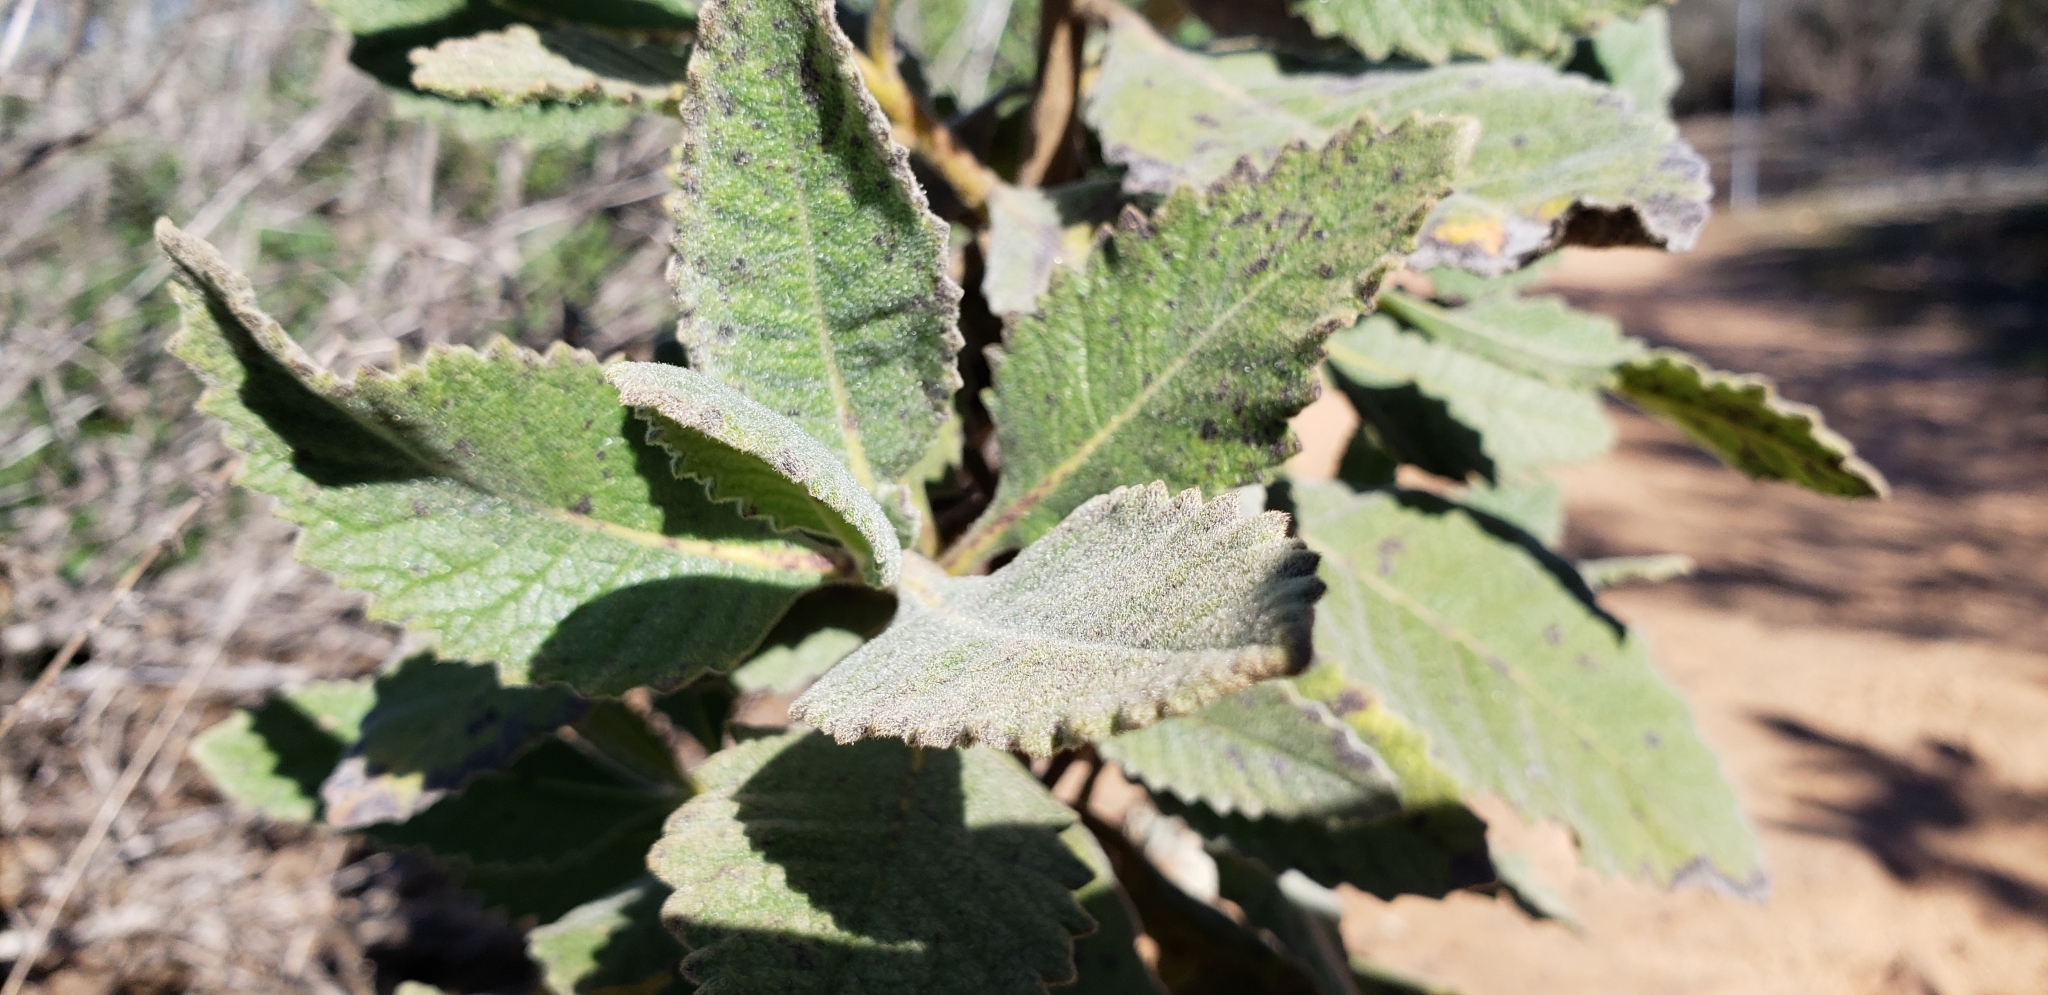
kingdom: Plantae
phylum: Tracheophyta
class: Magnoliopsida
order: Boraginales
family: Namaceae
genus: Eriodictyon
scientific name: Eriodictyon crassifolium
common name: Thick-leaf yerba-santa
